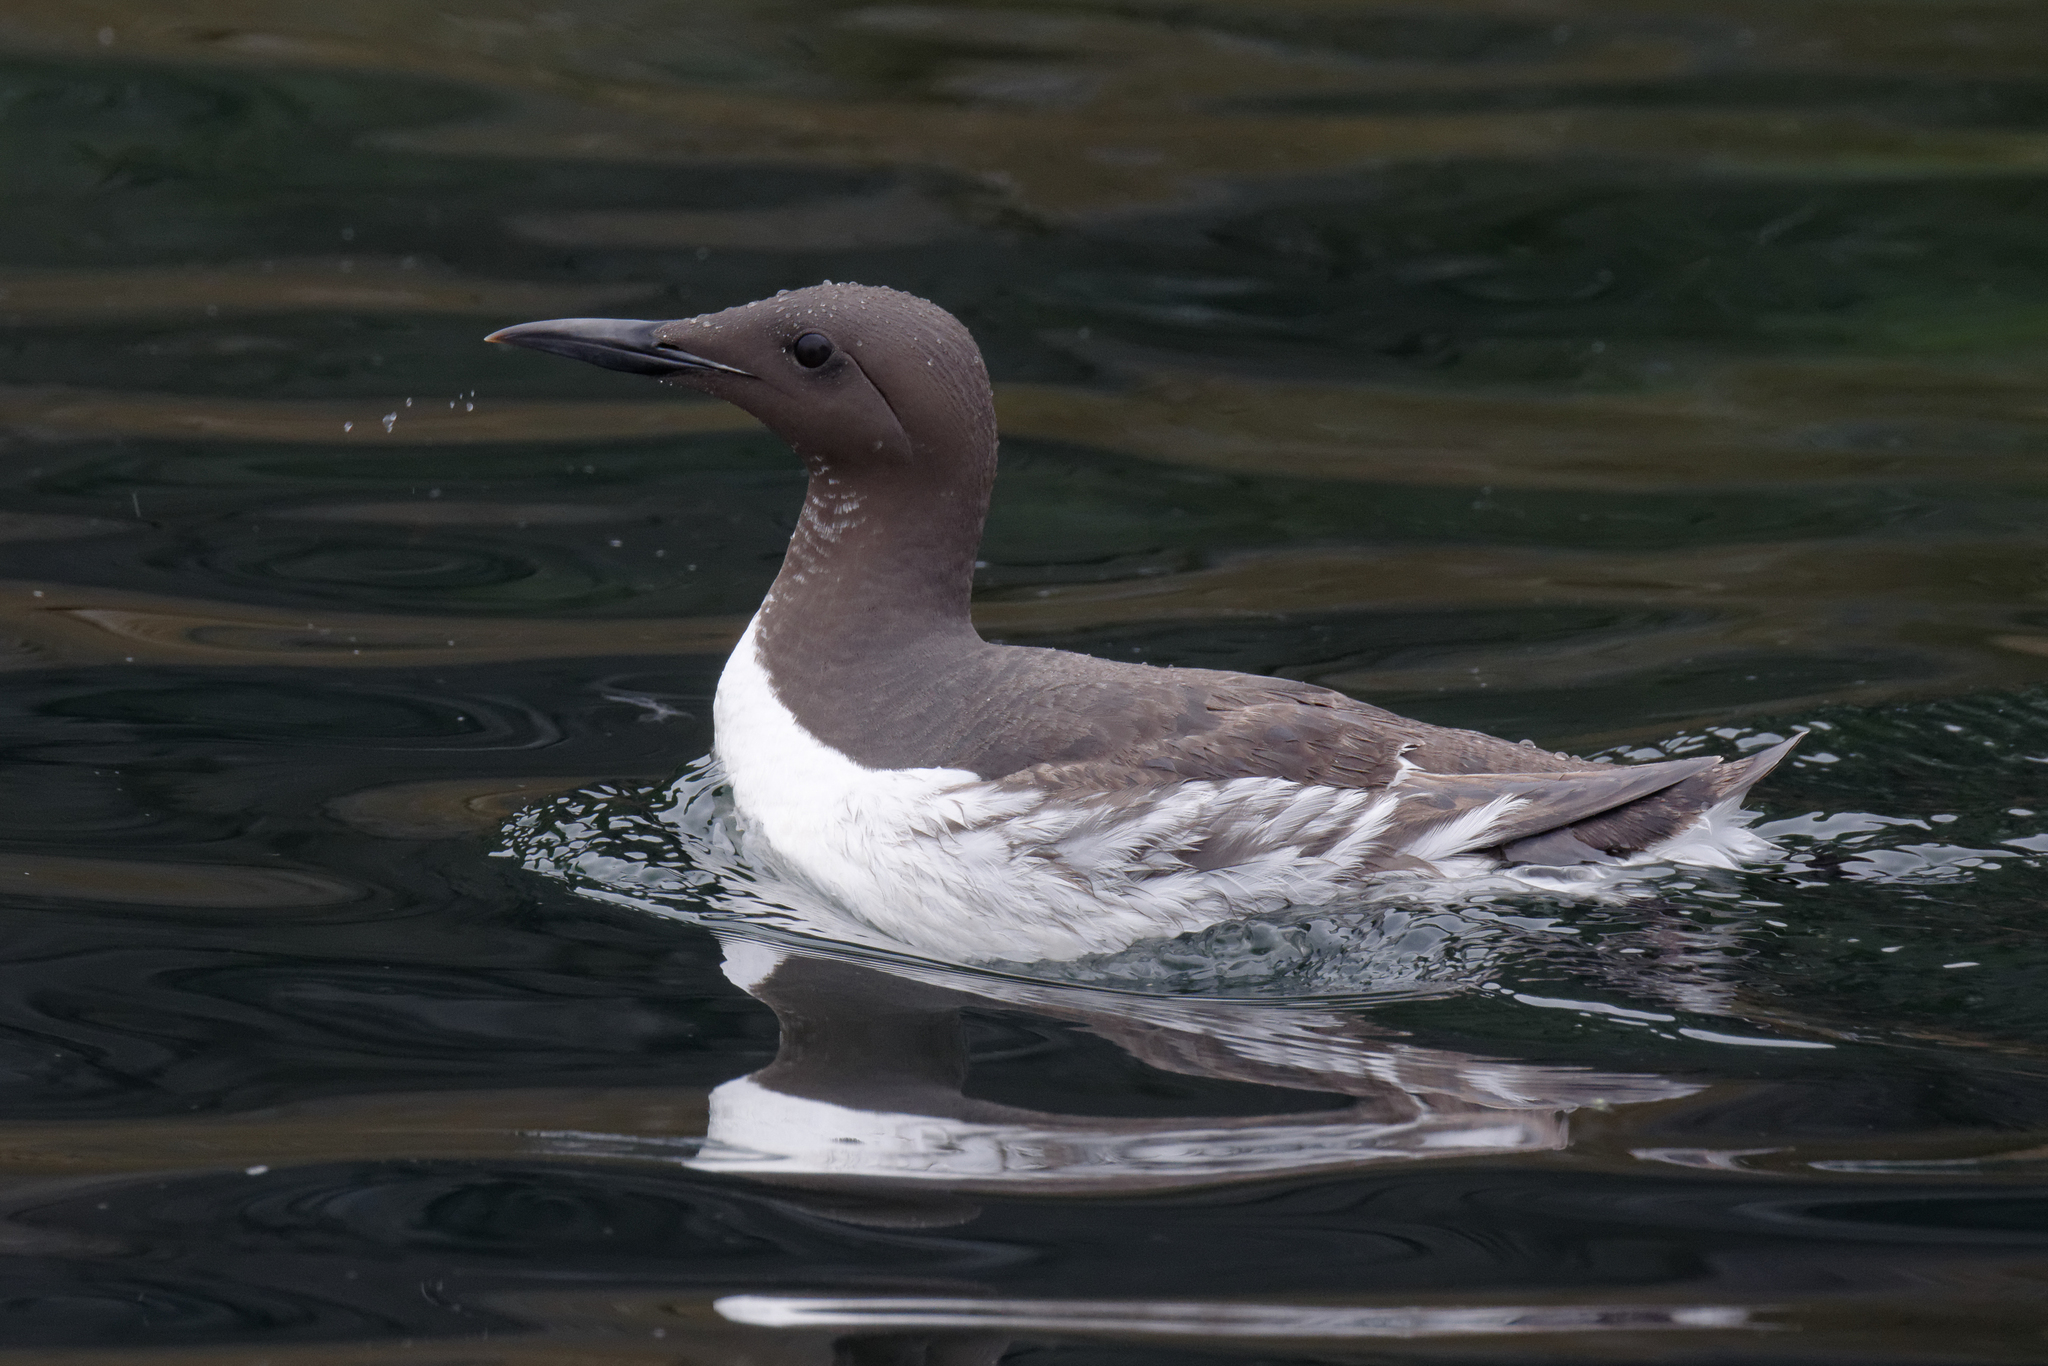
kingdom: Animalia
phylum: Chordata
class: Aves
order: Charadriiformes
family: Alcidae
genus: Uria
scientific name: Uria aalge
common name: Common murre
